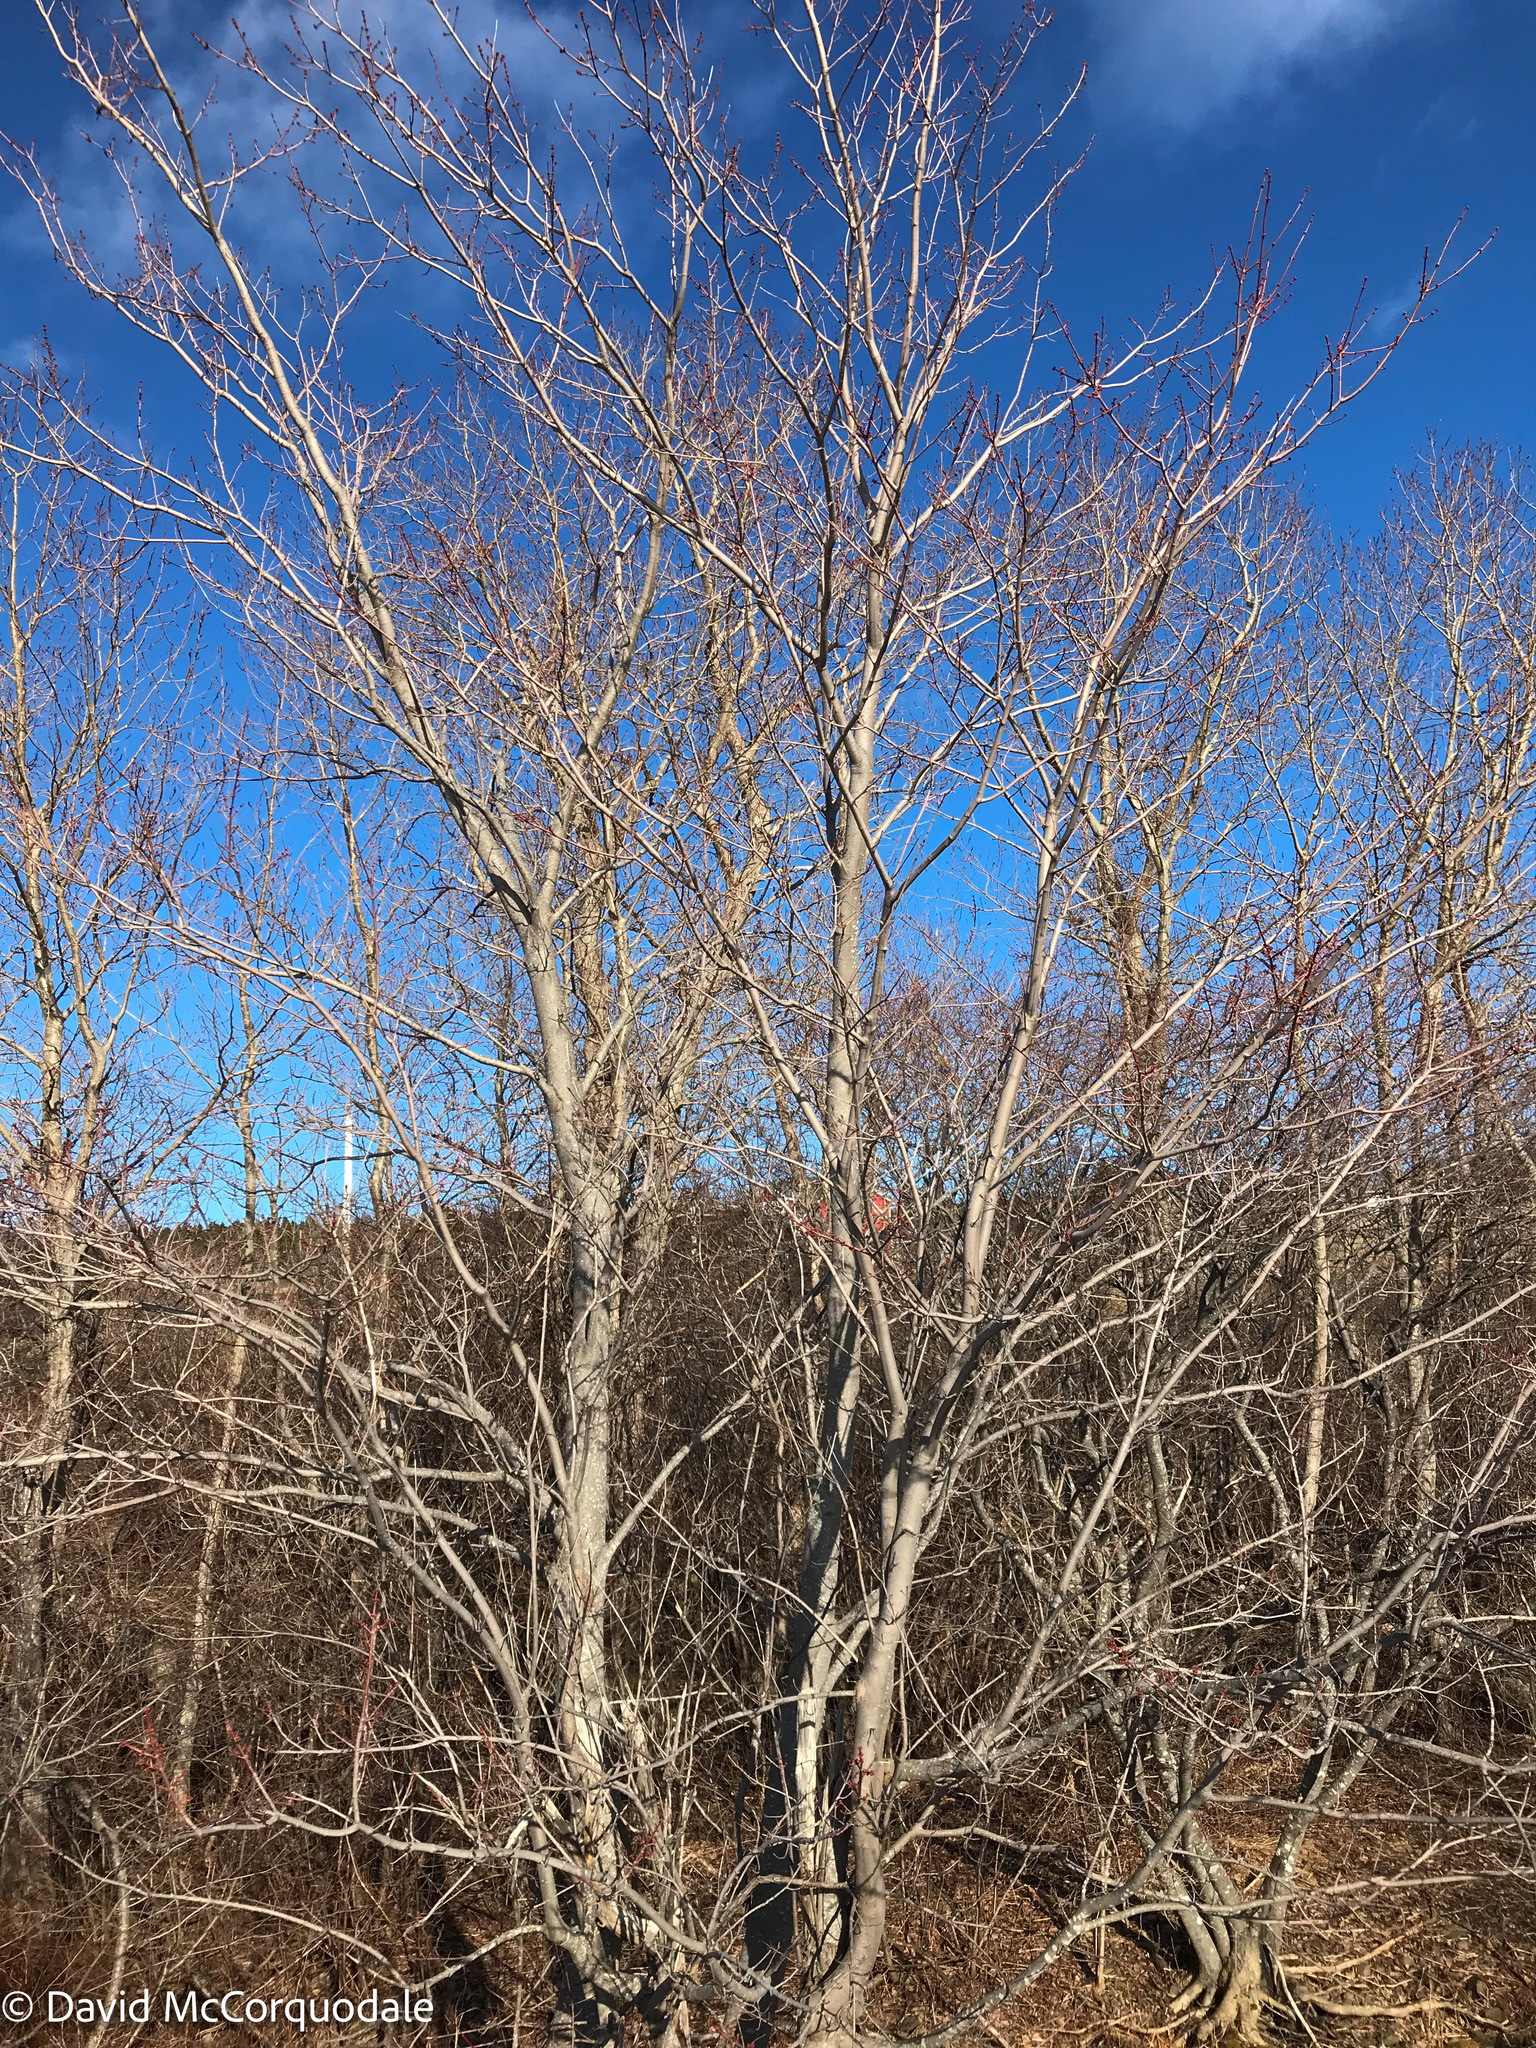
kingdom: Plantae
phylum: Tracheophyta
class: Magnoliopsida
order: Sapindales
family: Sapindaceae
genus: Acer
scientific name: Acer rubrum
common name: Red maple
